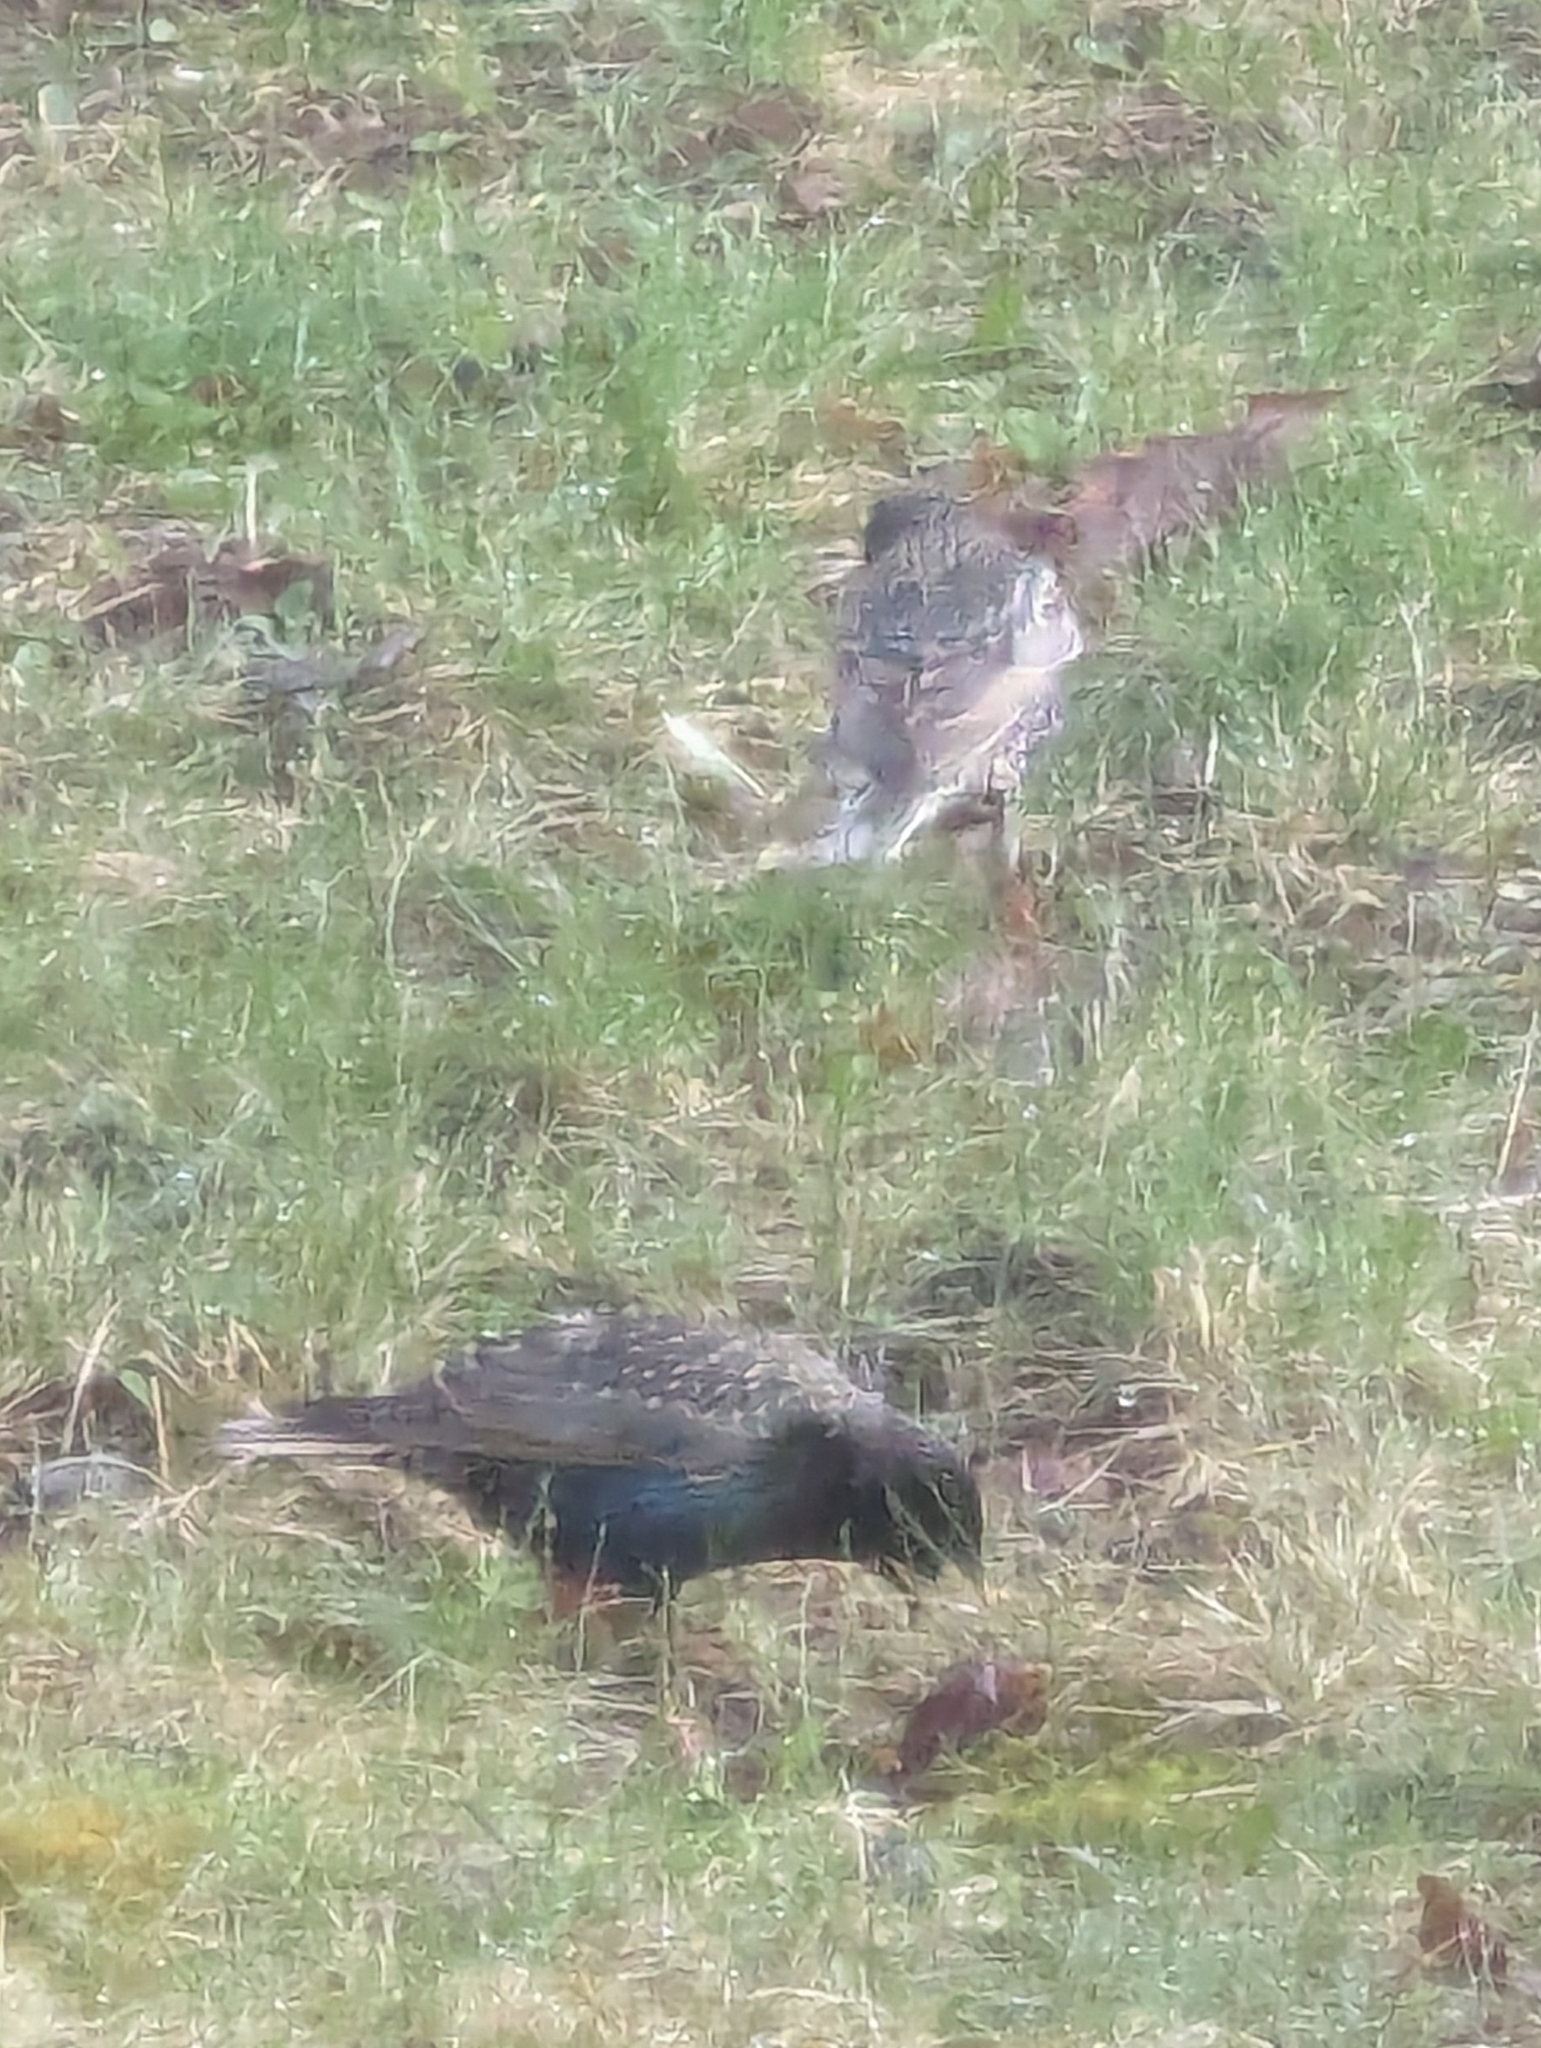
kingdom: Animalia
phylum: Chordata
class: Aves
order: Passeriformes
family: Sturnidae
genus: Sturnus
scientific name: Sturnus vulgaris
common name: Common starling
